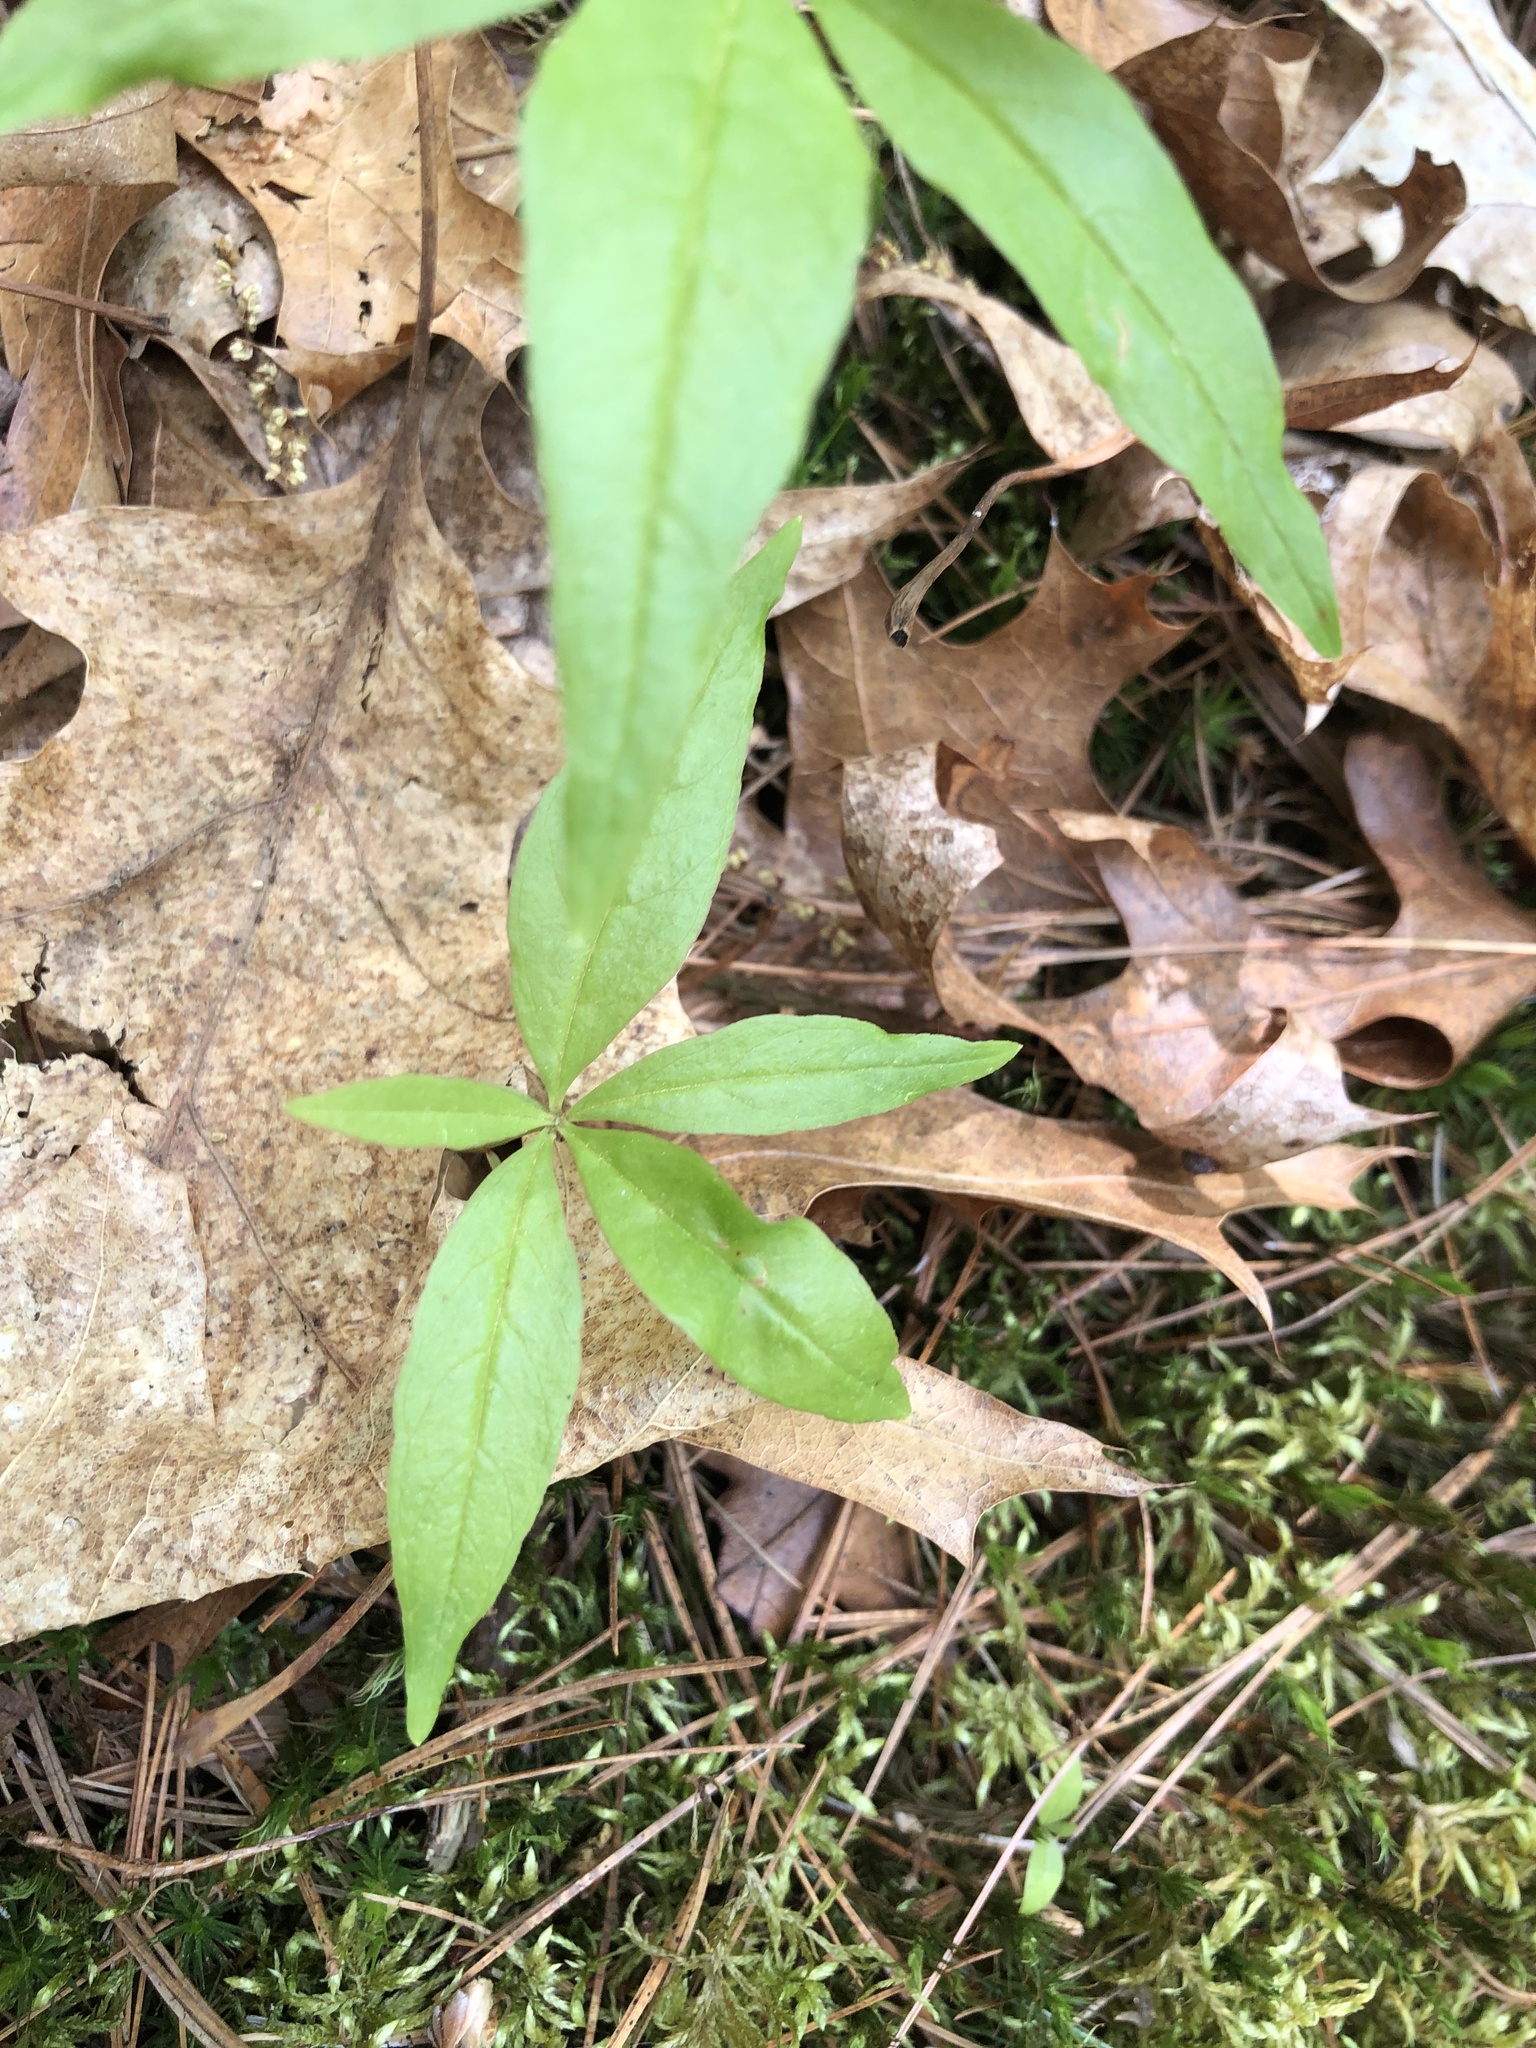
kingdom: Plantae
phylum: Tracheophyta
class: Magnoliopsida
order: Ericales
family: Primulaceae
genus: Lysimachia
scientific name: Lysimachia borealis
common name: American starflower
